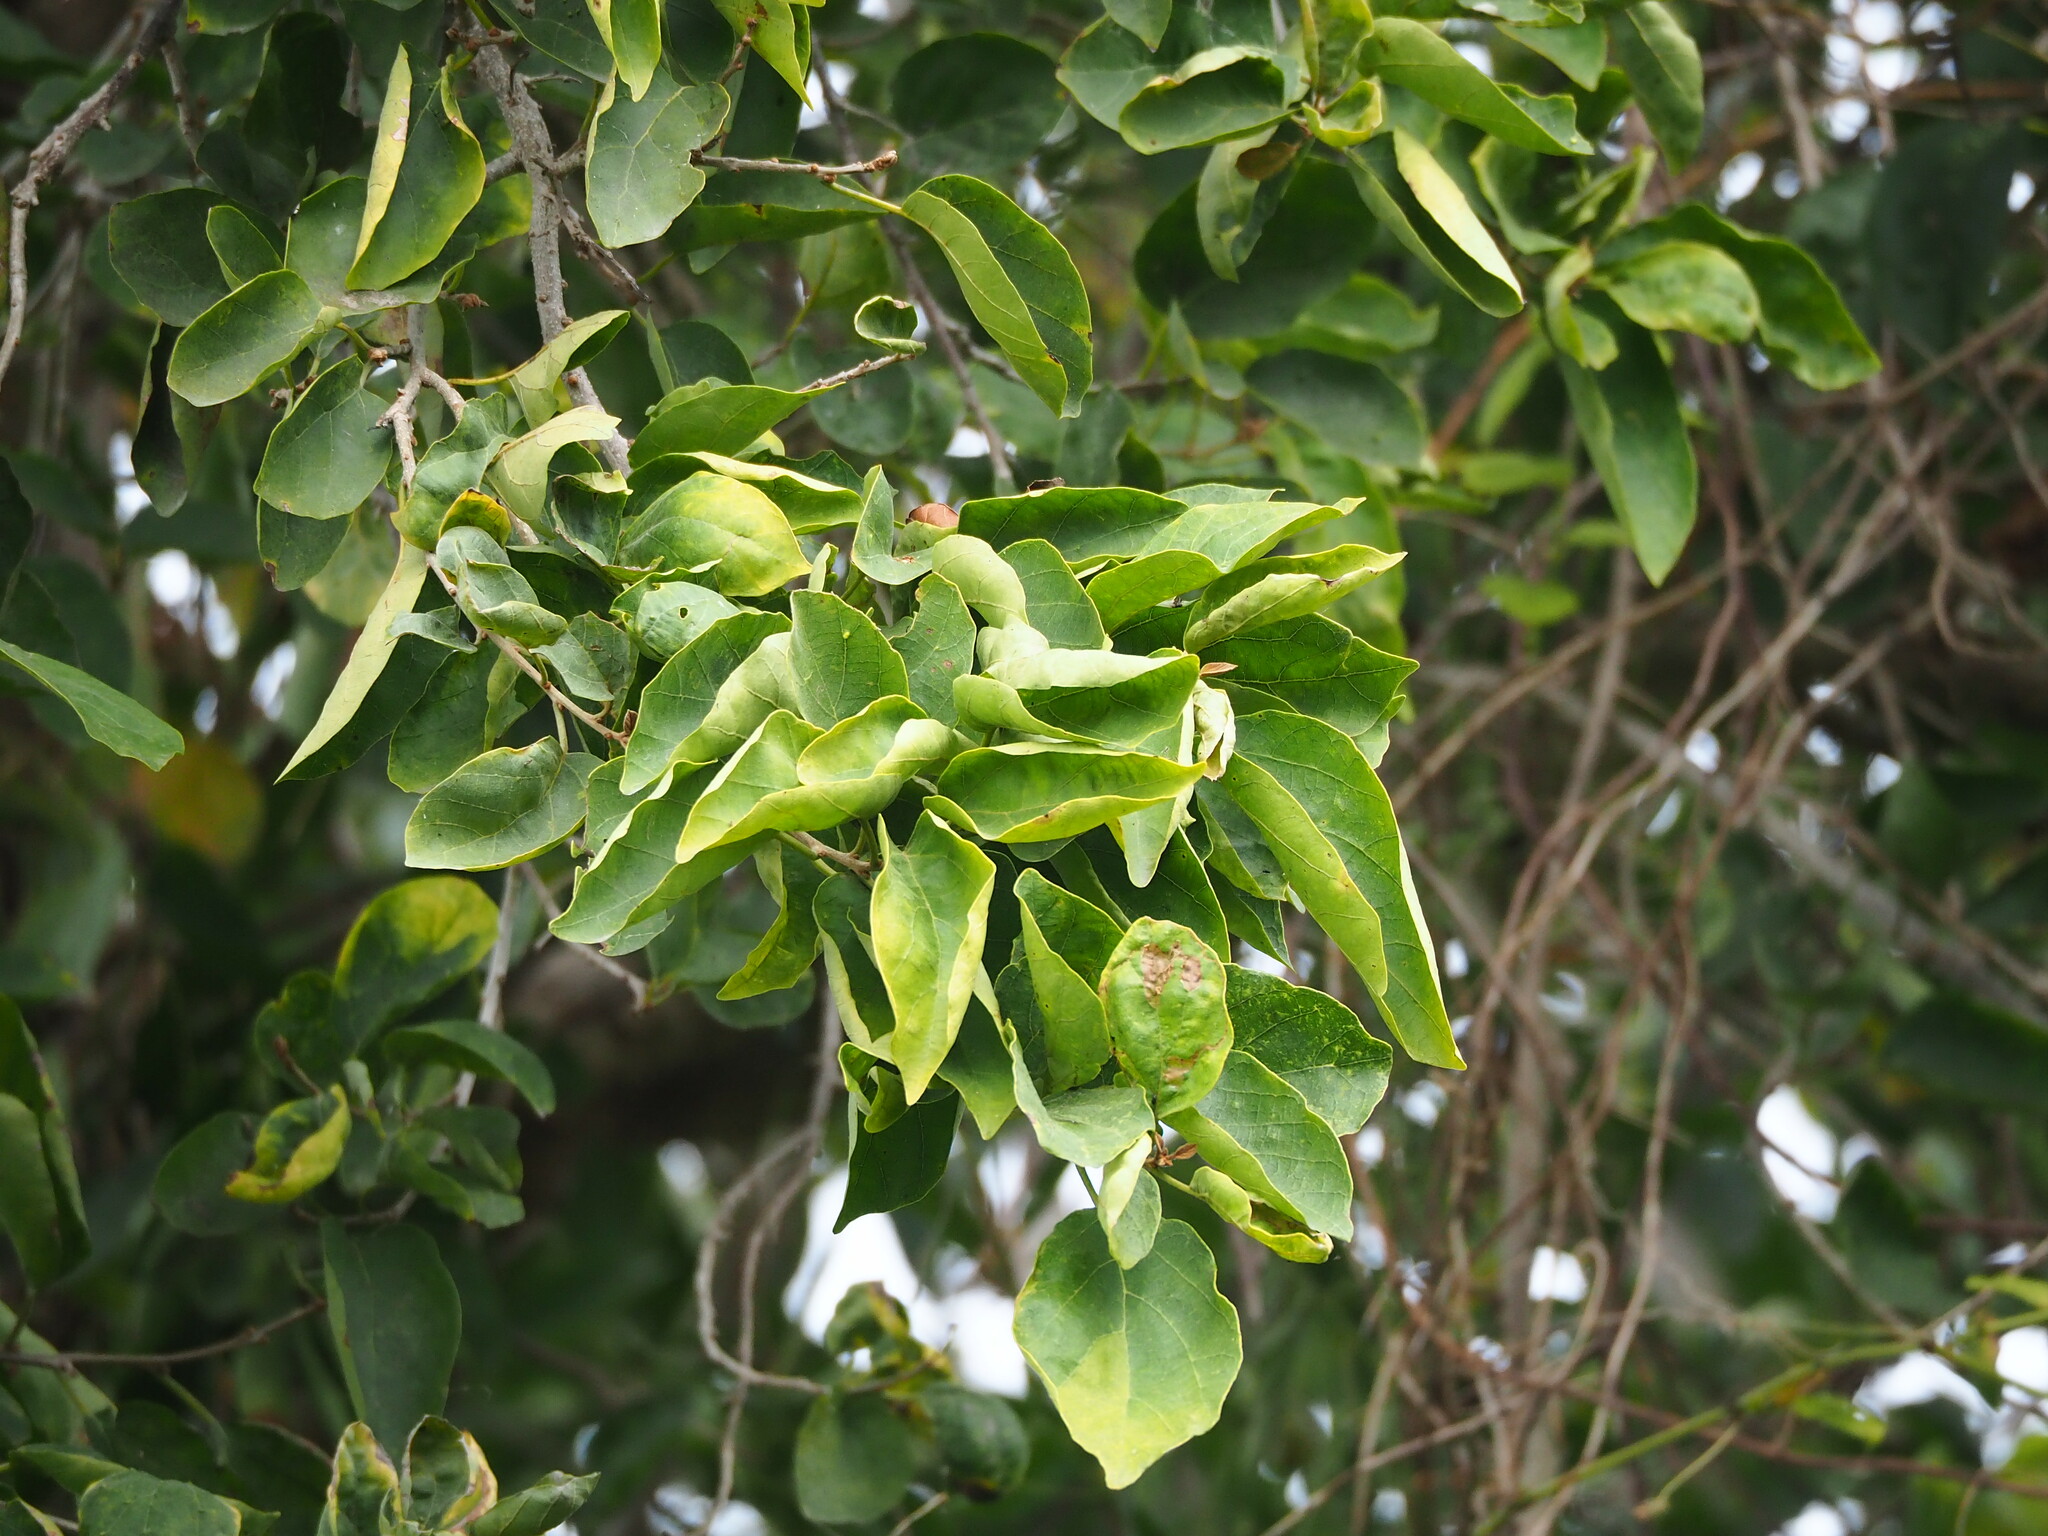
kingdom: Plantae
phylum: Tracheophyta
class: Magnoliopsida
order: Boraginales
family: Cordiaceae
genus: Cordia
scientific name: Cordia dichotoma
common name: Fragrant manjack
